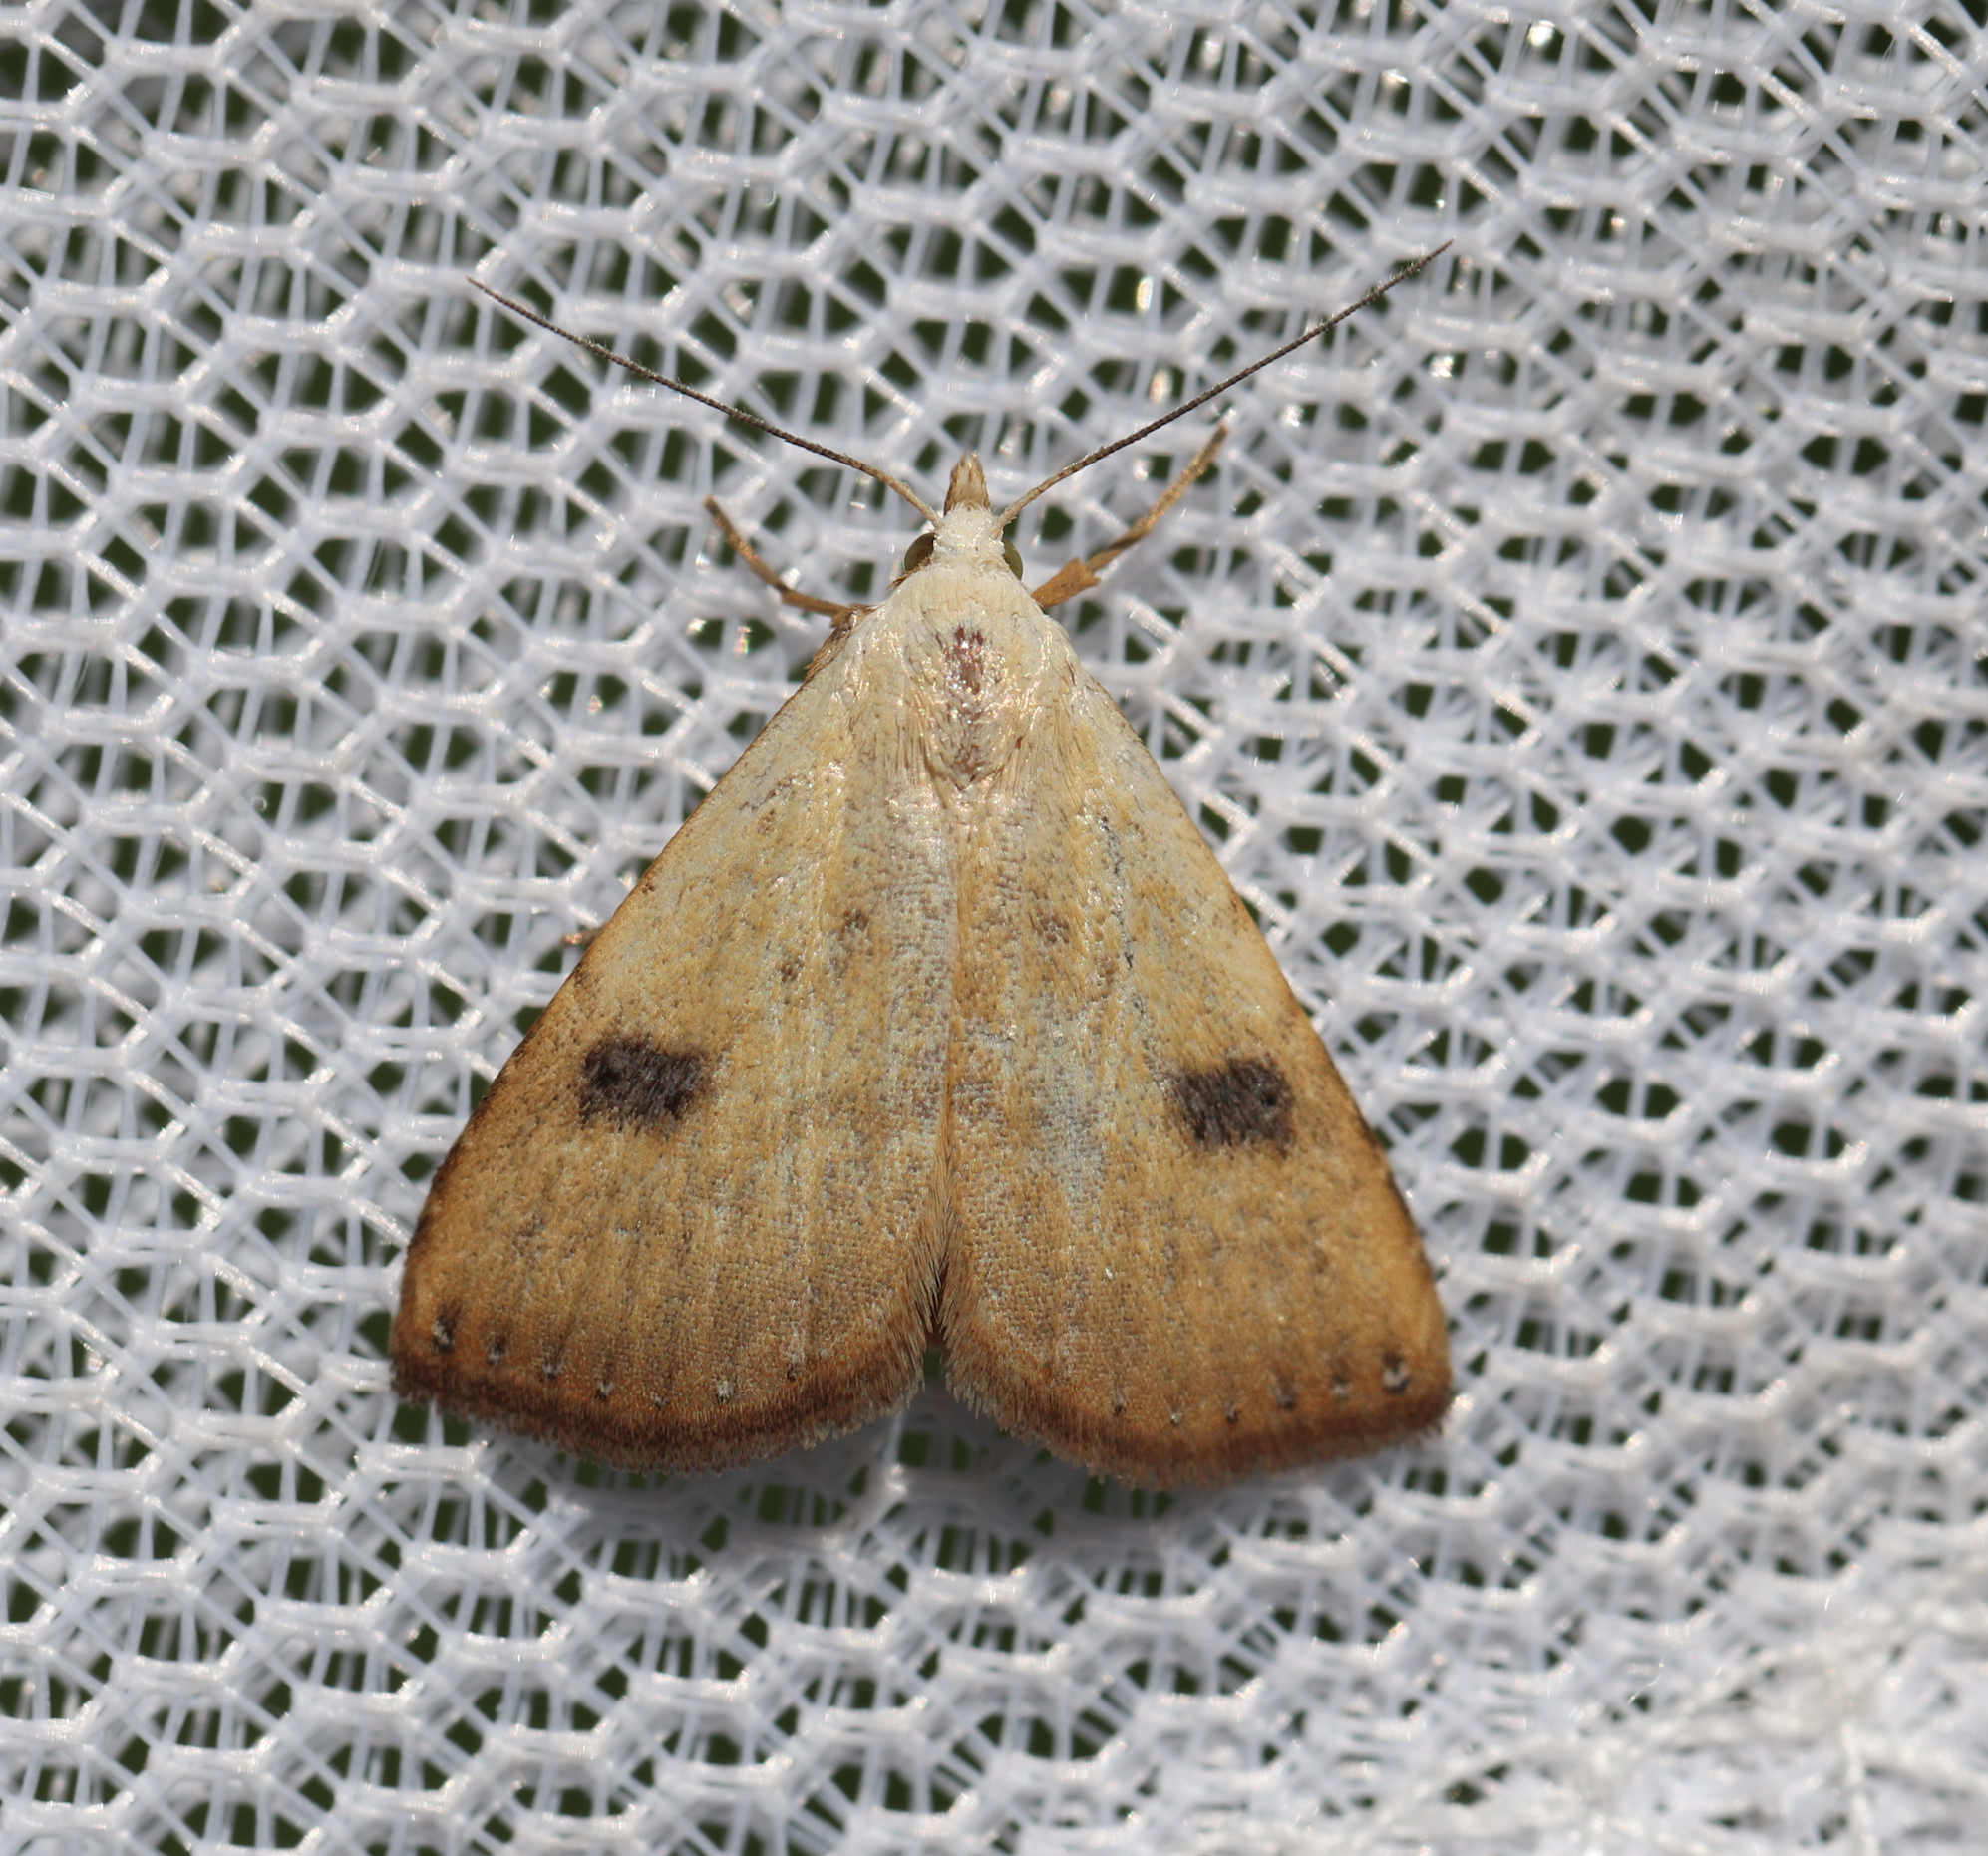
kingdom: Animalia
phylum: Arthropoda
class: Insecta
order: Lepidoptera
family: Erebidae
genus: Rivula
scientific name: Rivula sericealis
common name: Straw dot
